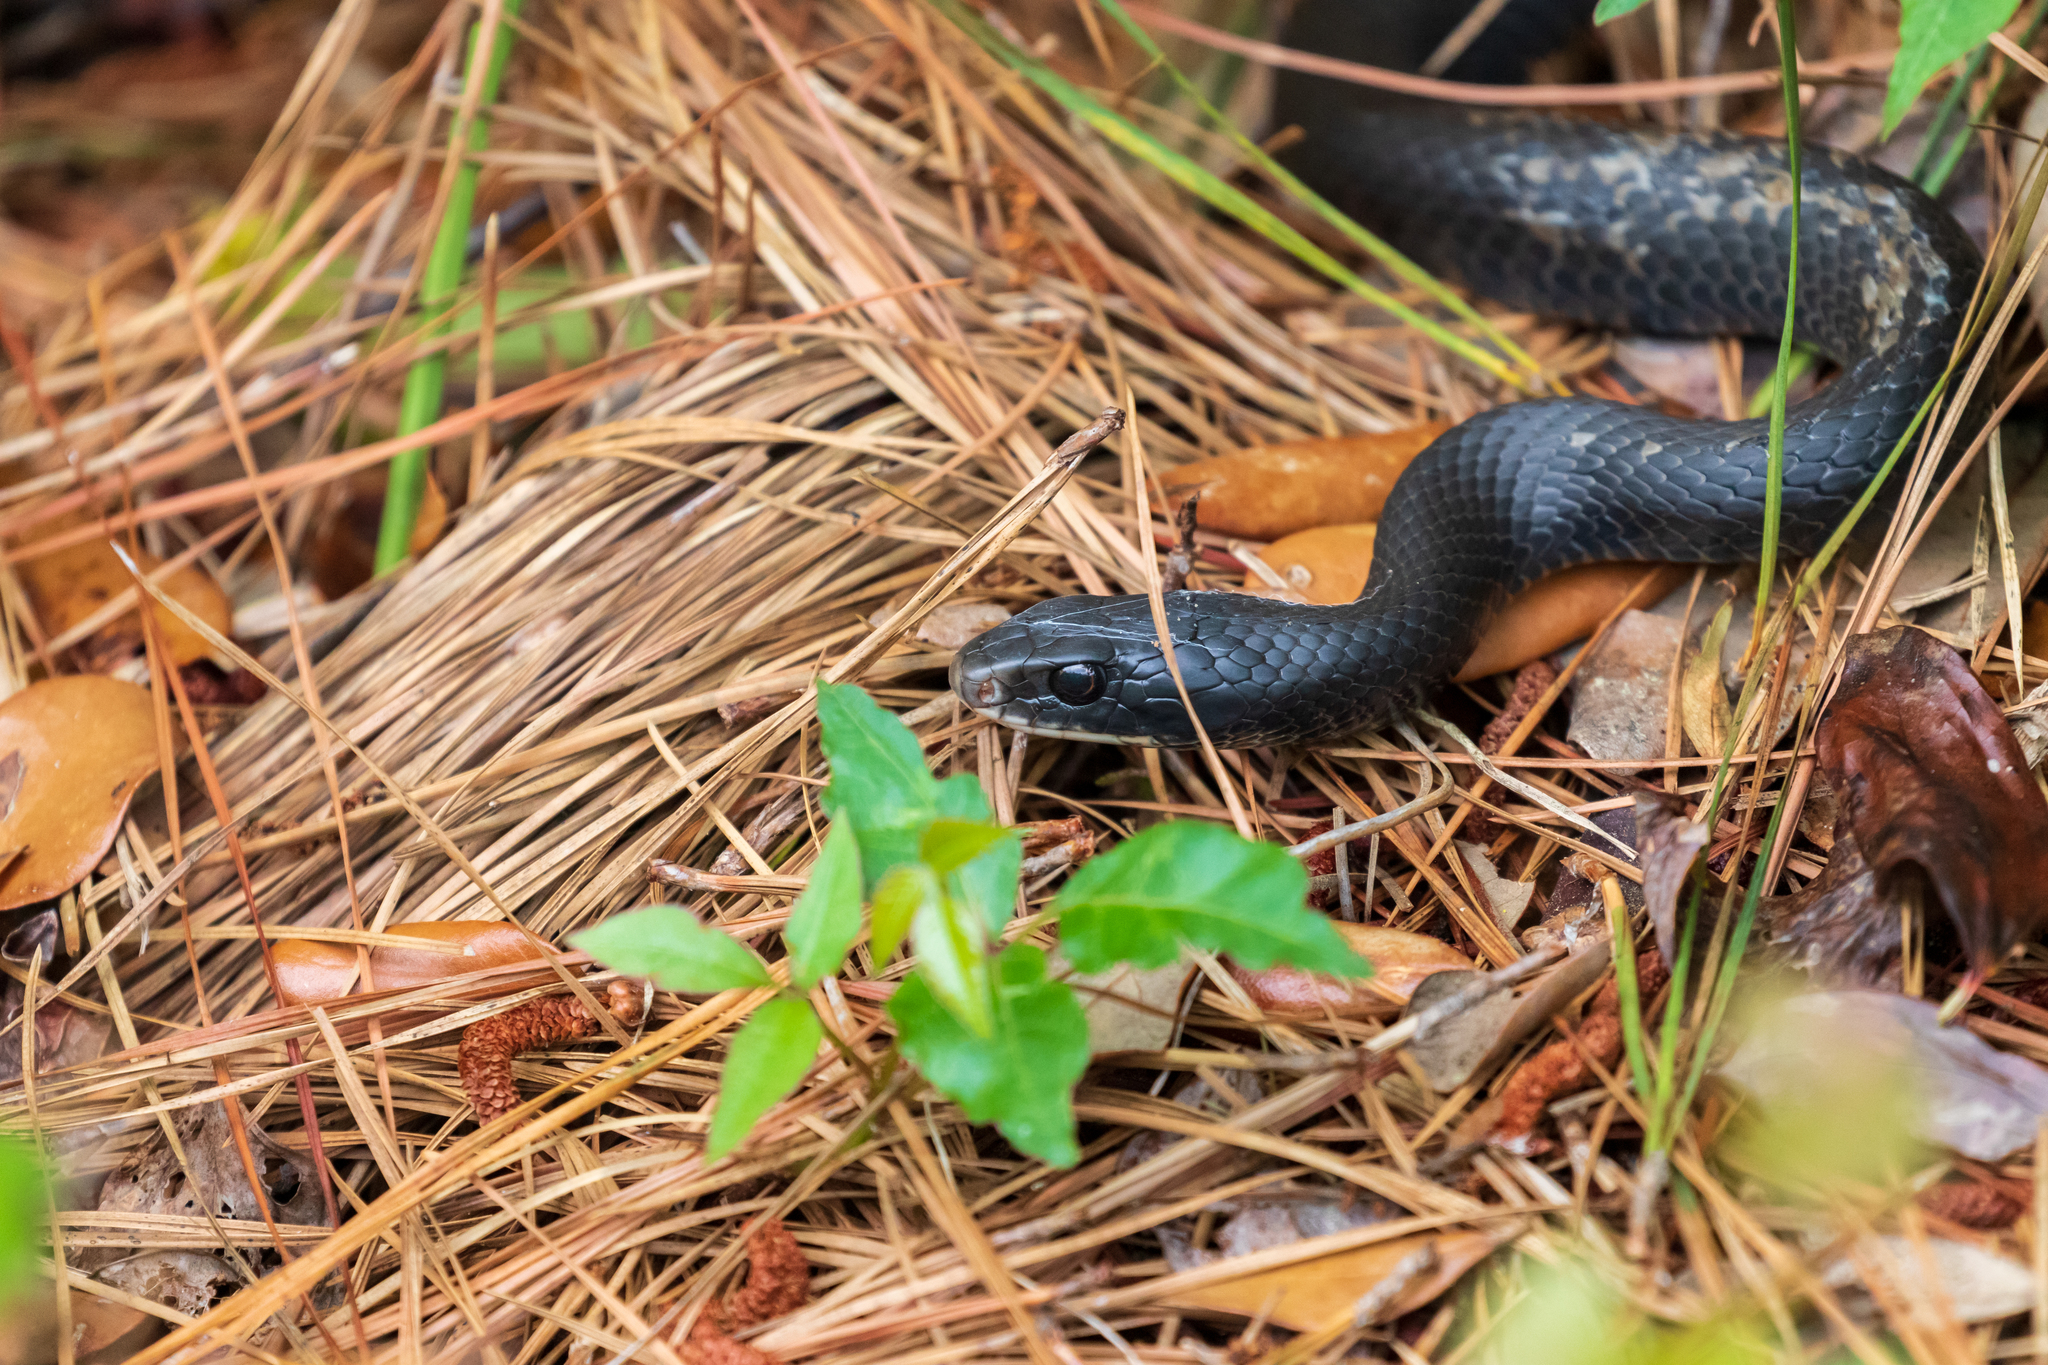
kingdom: Animalia
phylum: Chordata
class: Squamata
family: Colubridae
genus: Coluber
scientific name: Coluber constrictor
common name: Eastern racer
